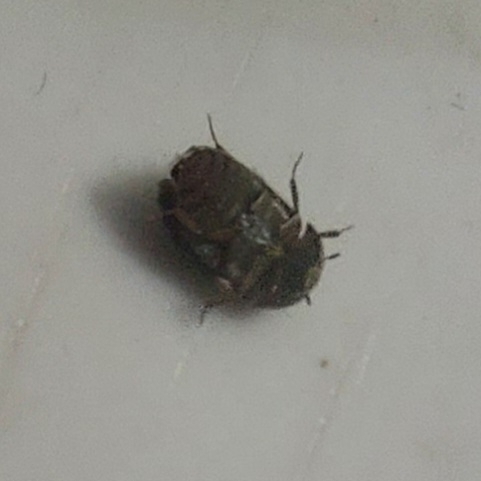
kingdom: Animalia
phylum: Arthropoda
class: Insecta
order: Coleoptera
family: Dermestidae
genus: Attagenus
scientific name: Attagenus fasciatus
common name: Wardrobe beetle
